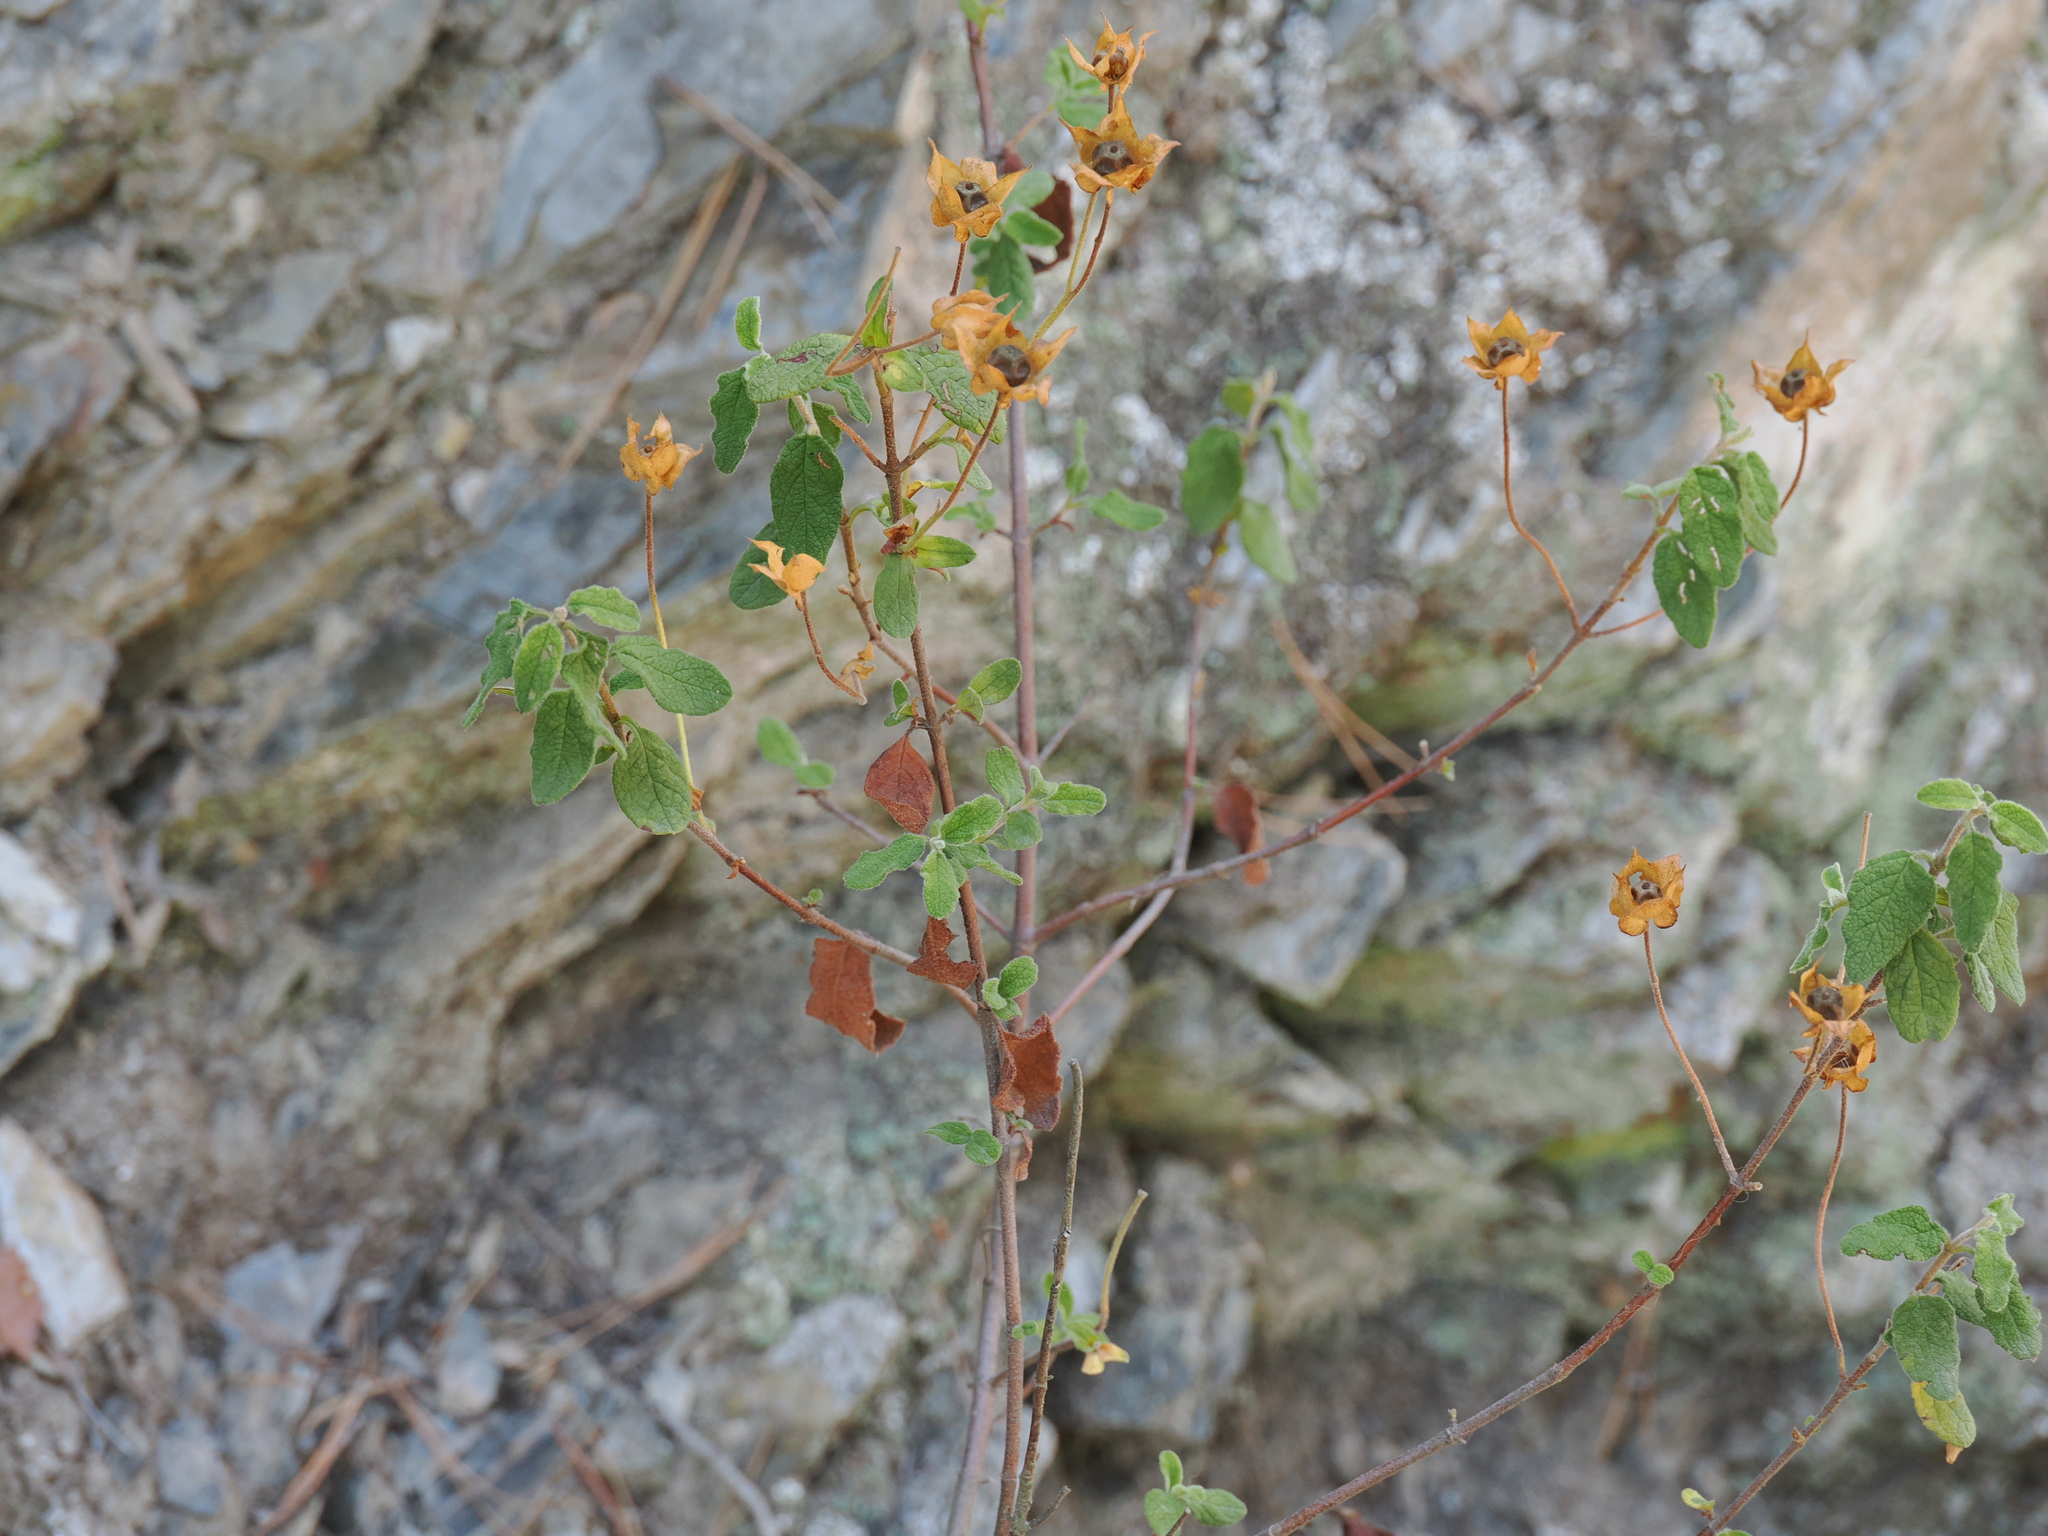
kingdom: Plantae
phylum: Tracheophyta
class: Magnoliopsida
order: Malvales
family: Cistaceae
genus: Cistus
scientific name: Cistus salviifolius
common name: Salvia cistus
